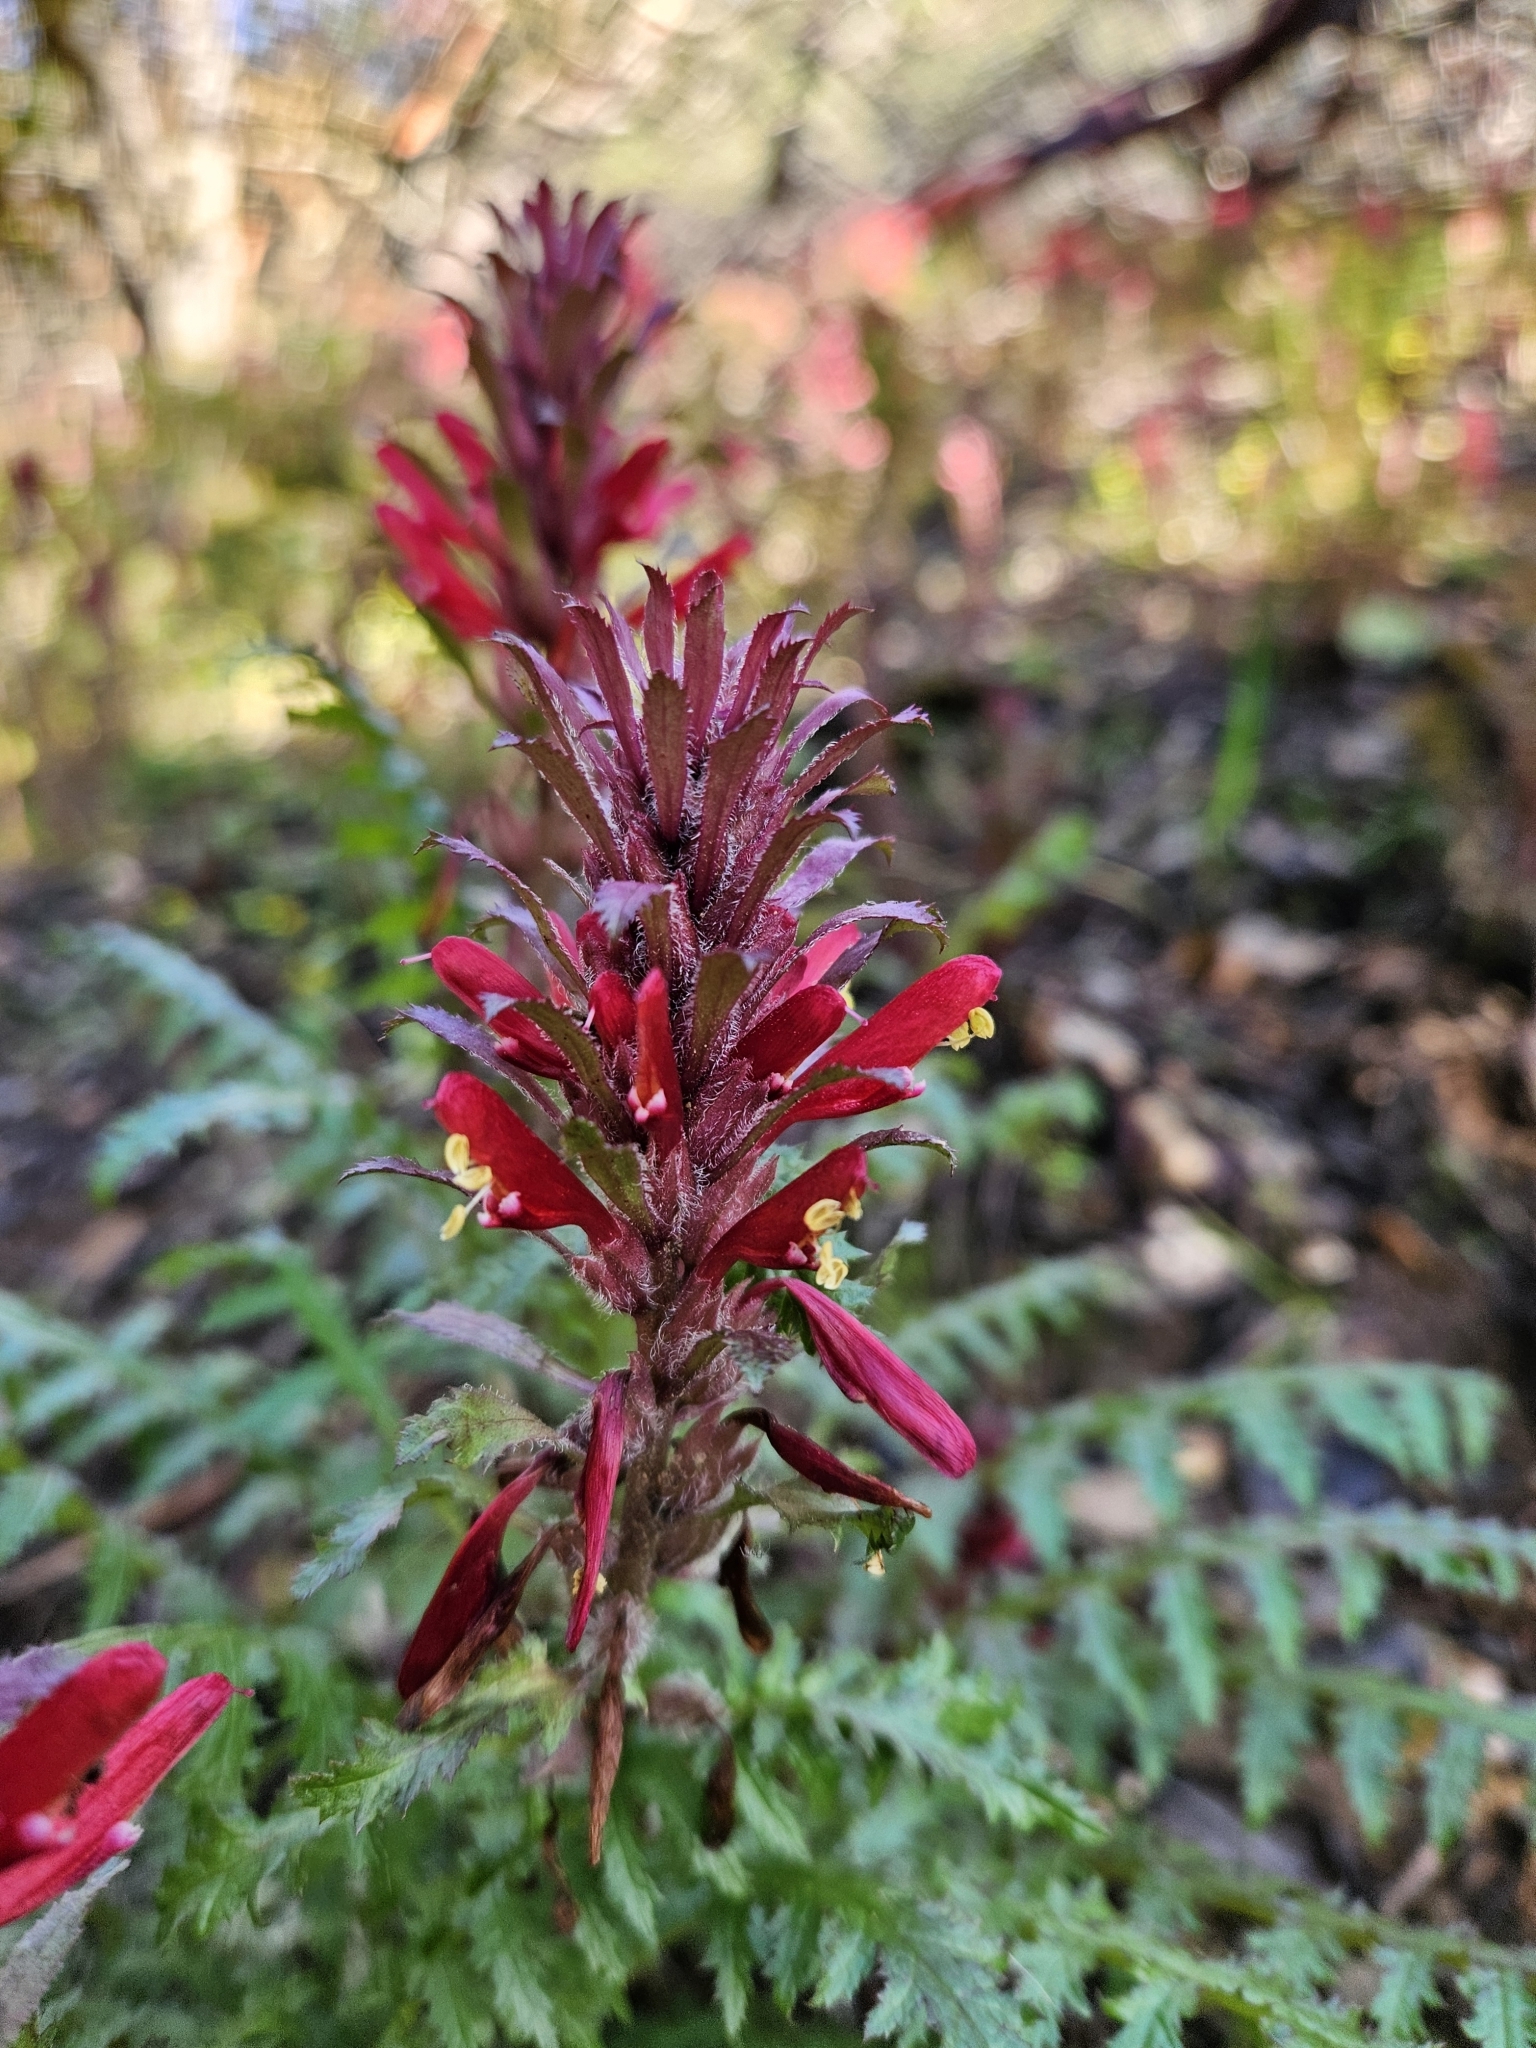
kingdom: Plantae
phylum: Tracheophyta
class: Magnoliopsida
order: Lamiales
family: Orobanchaceae
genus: Pedicularis
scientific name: Pedicularis densiflora
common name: Indian warrior
